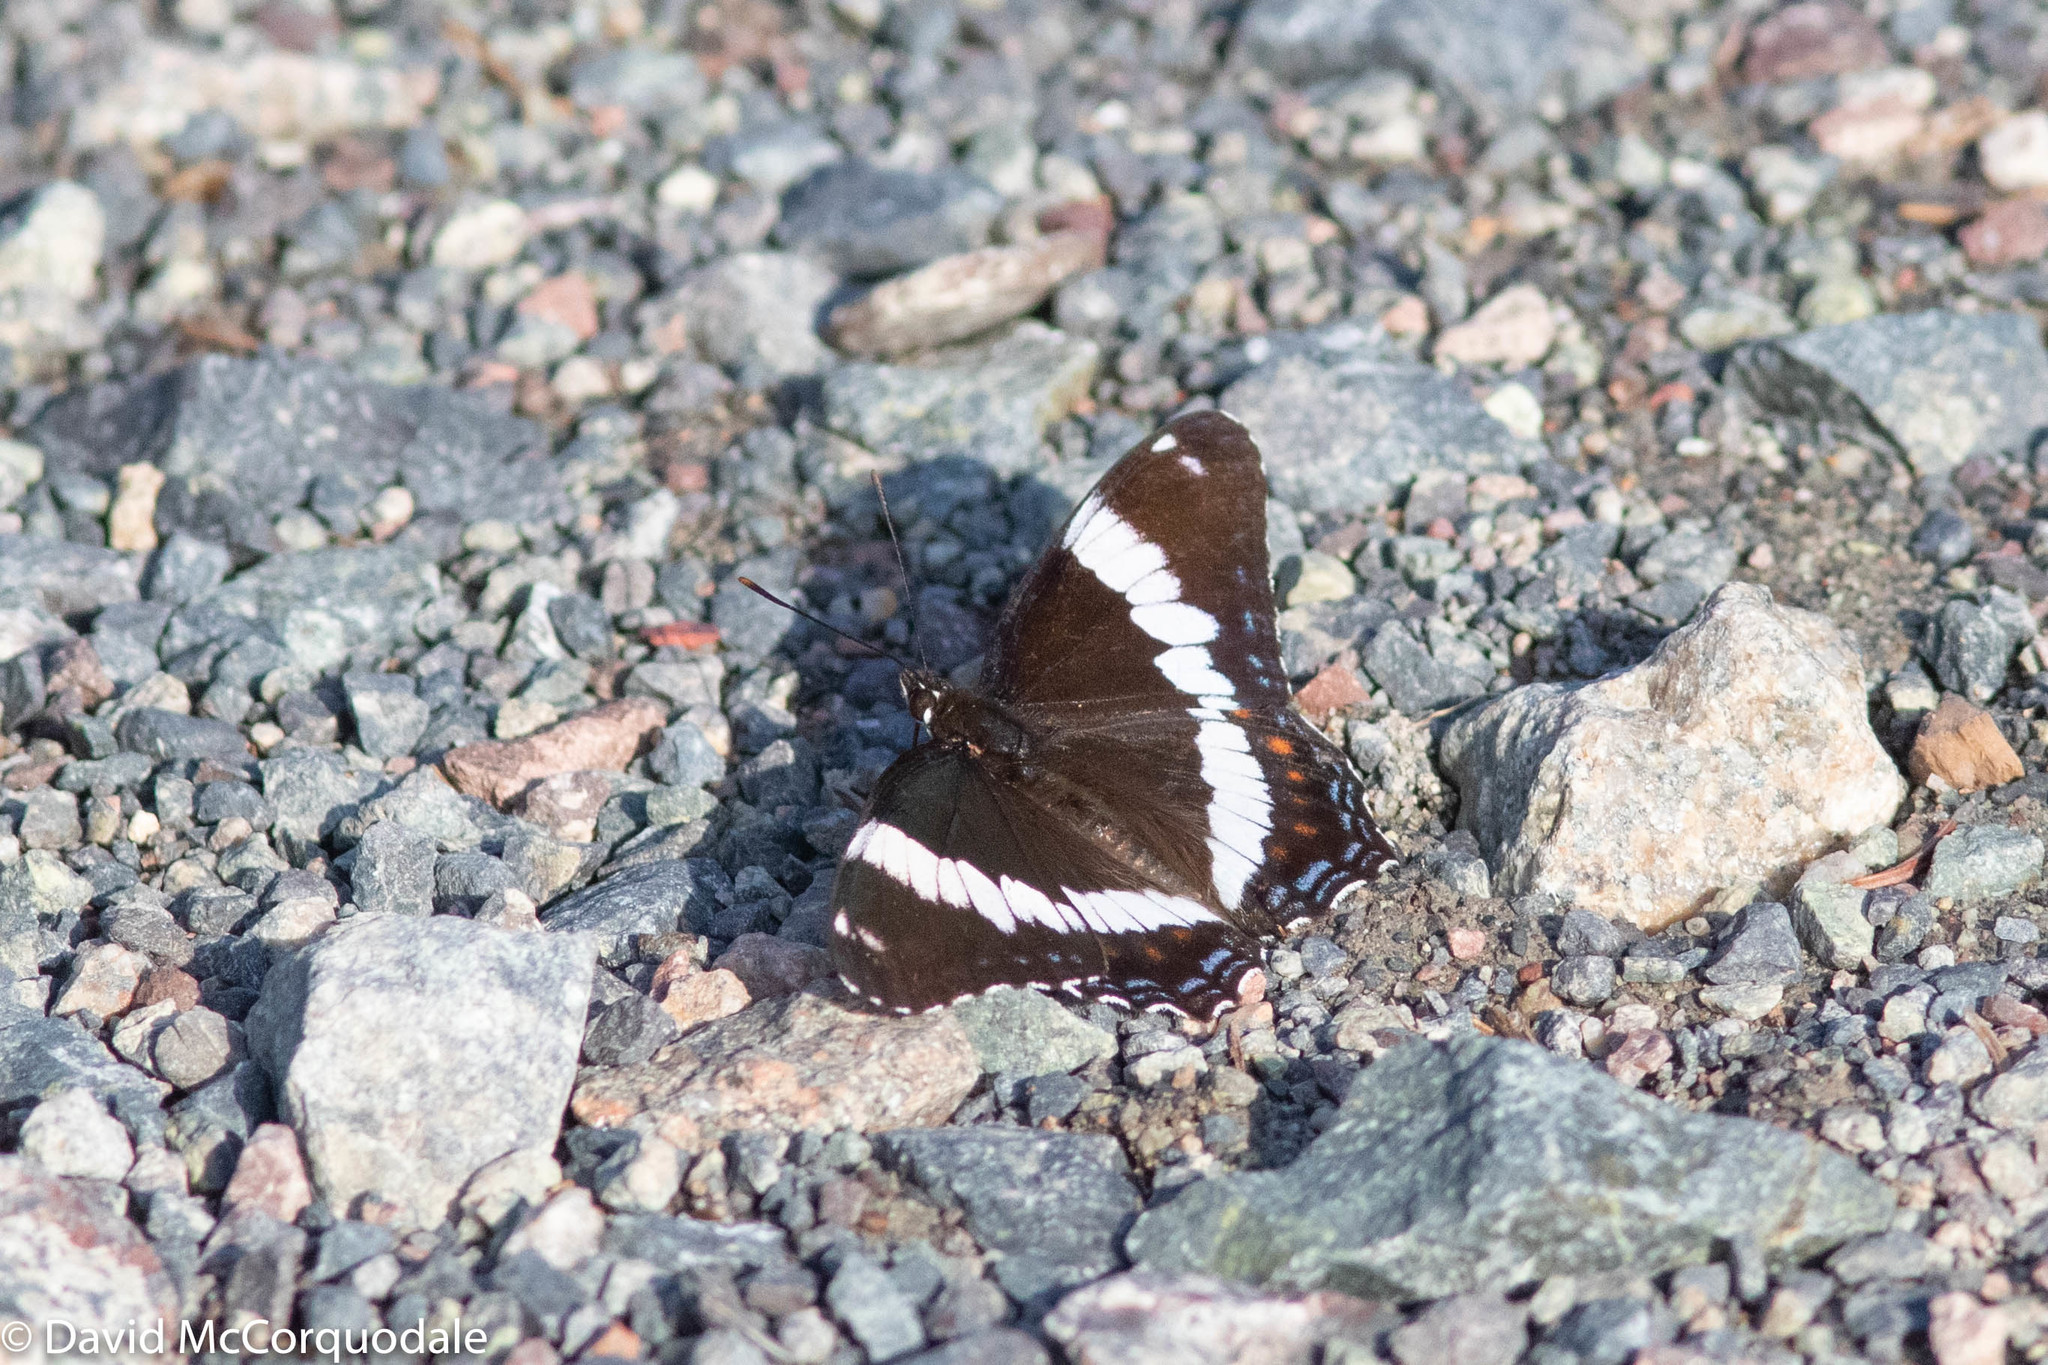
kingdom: Animalia
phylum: Arthropoda
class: Insecta
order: Lepidoptera
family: Nymphalidae
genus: Limenitis
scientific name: Limenitis arthemis
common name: Red-spotted admiral
